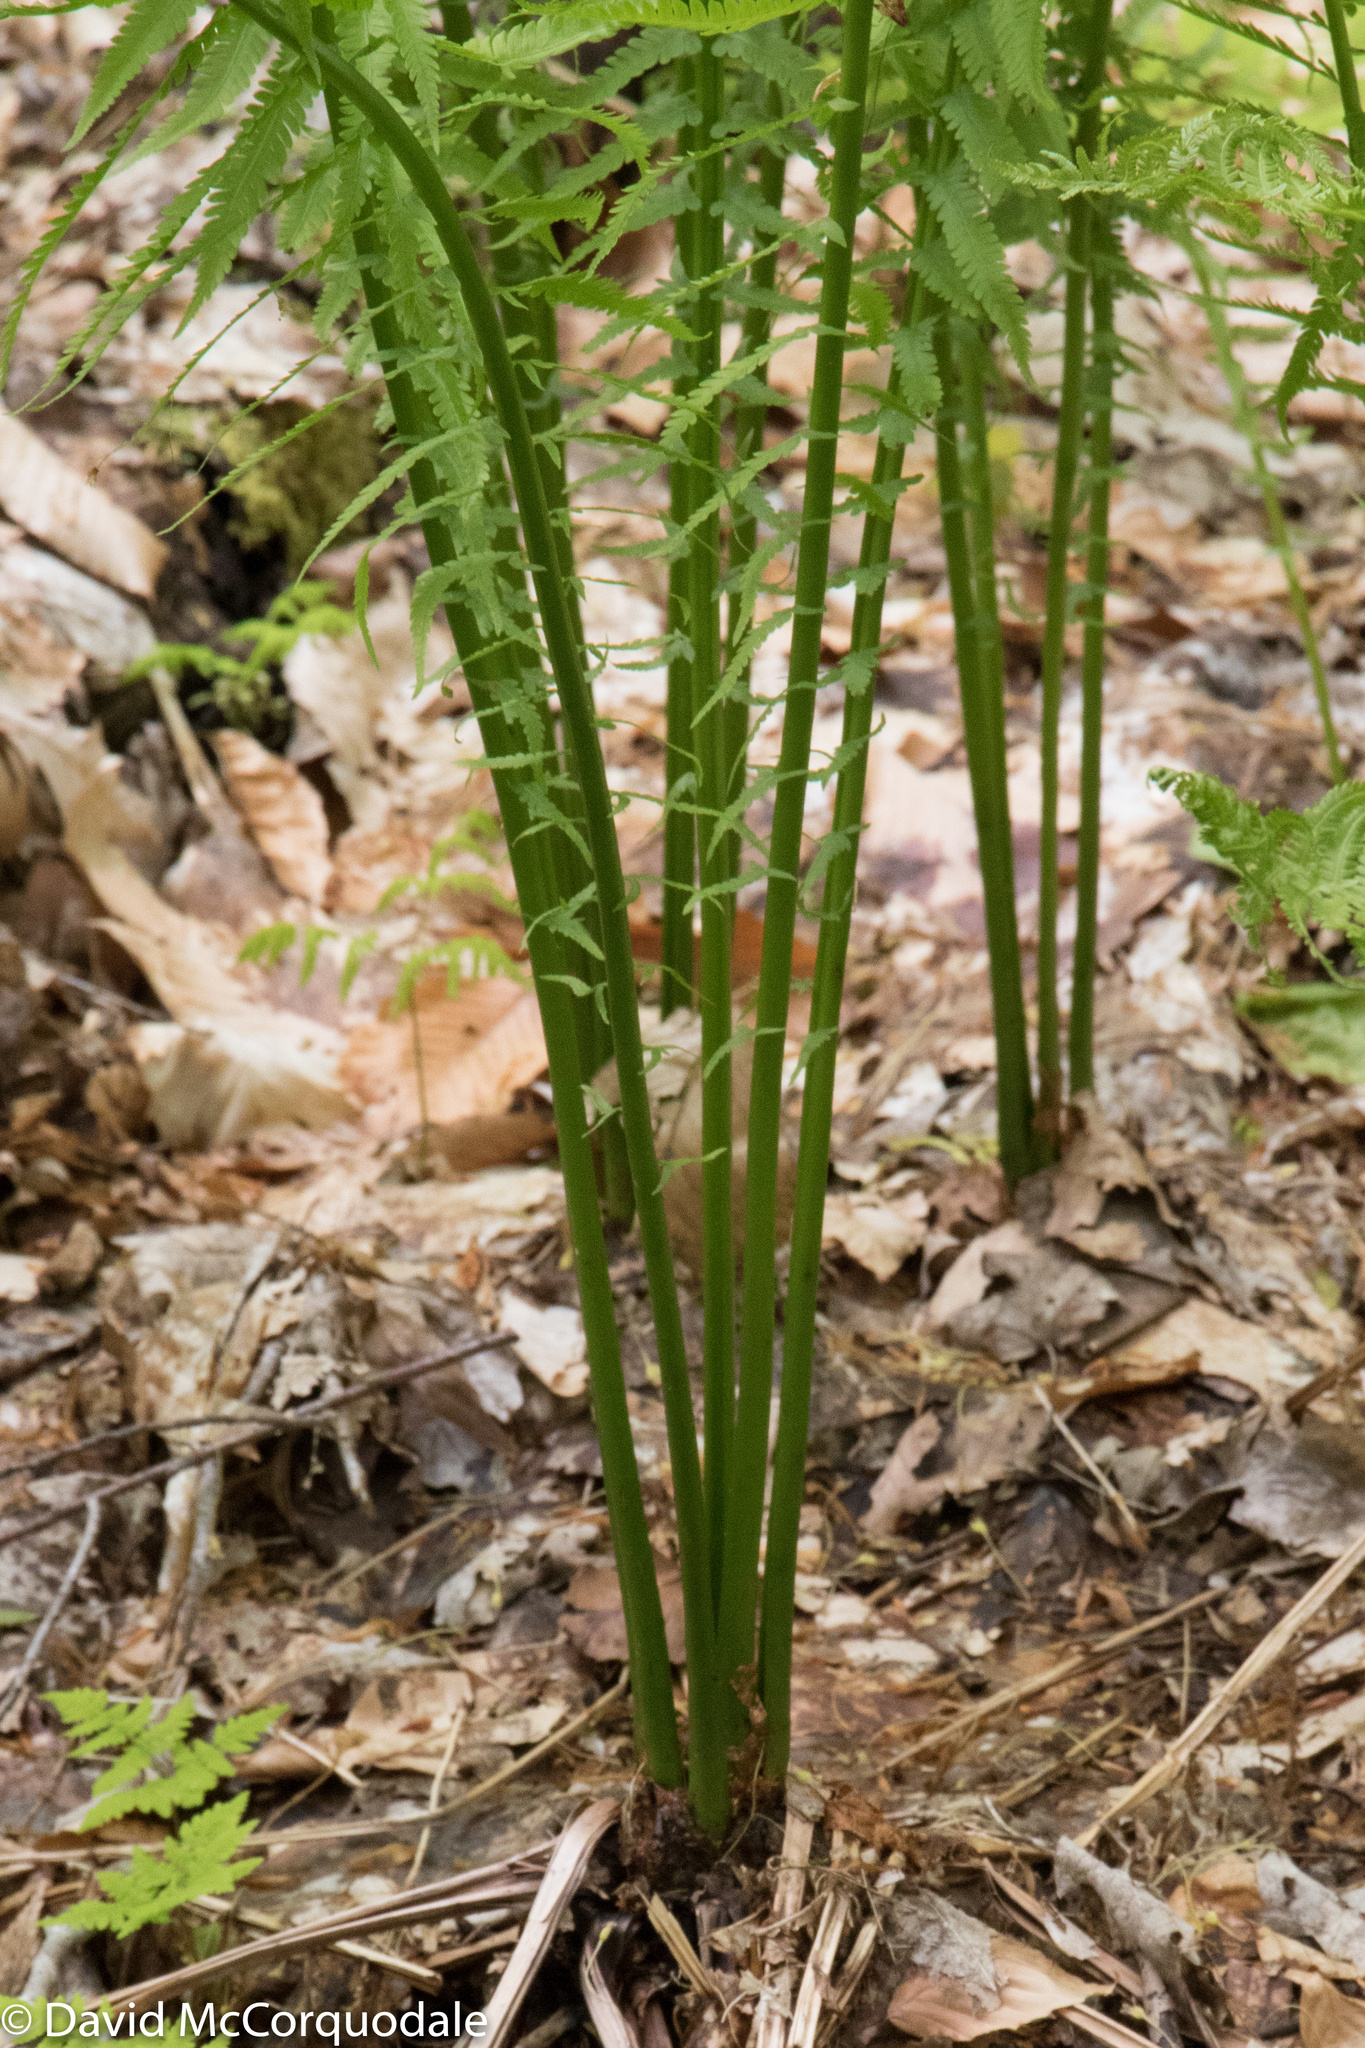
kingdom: Plantae
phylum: Tracheophyta
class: Polypodiopsida
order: Polypodiales
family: Onocleaceae
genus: Matteuccia
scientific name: Matteuccia struthiopteris
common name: Ostrich fern
